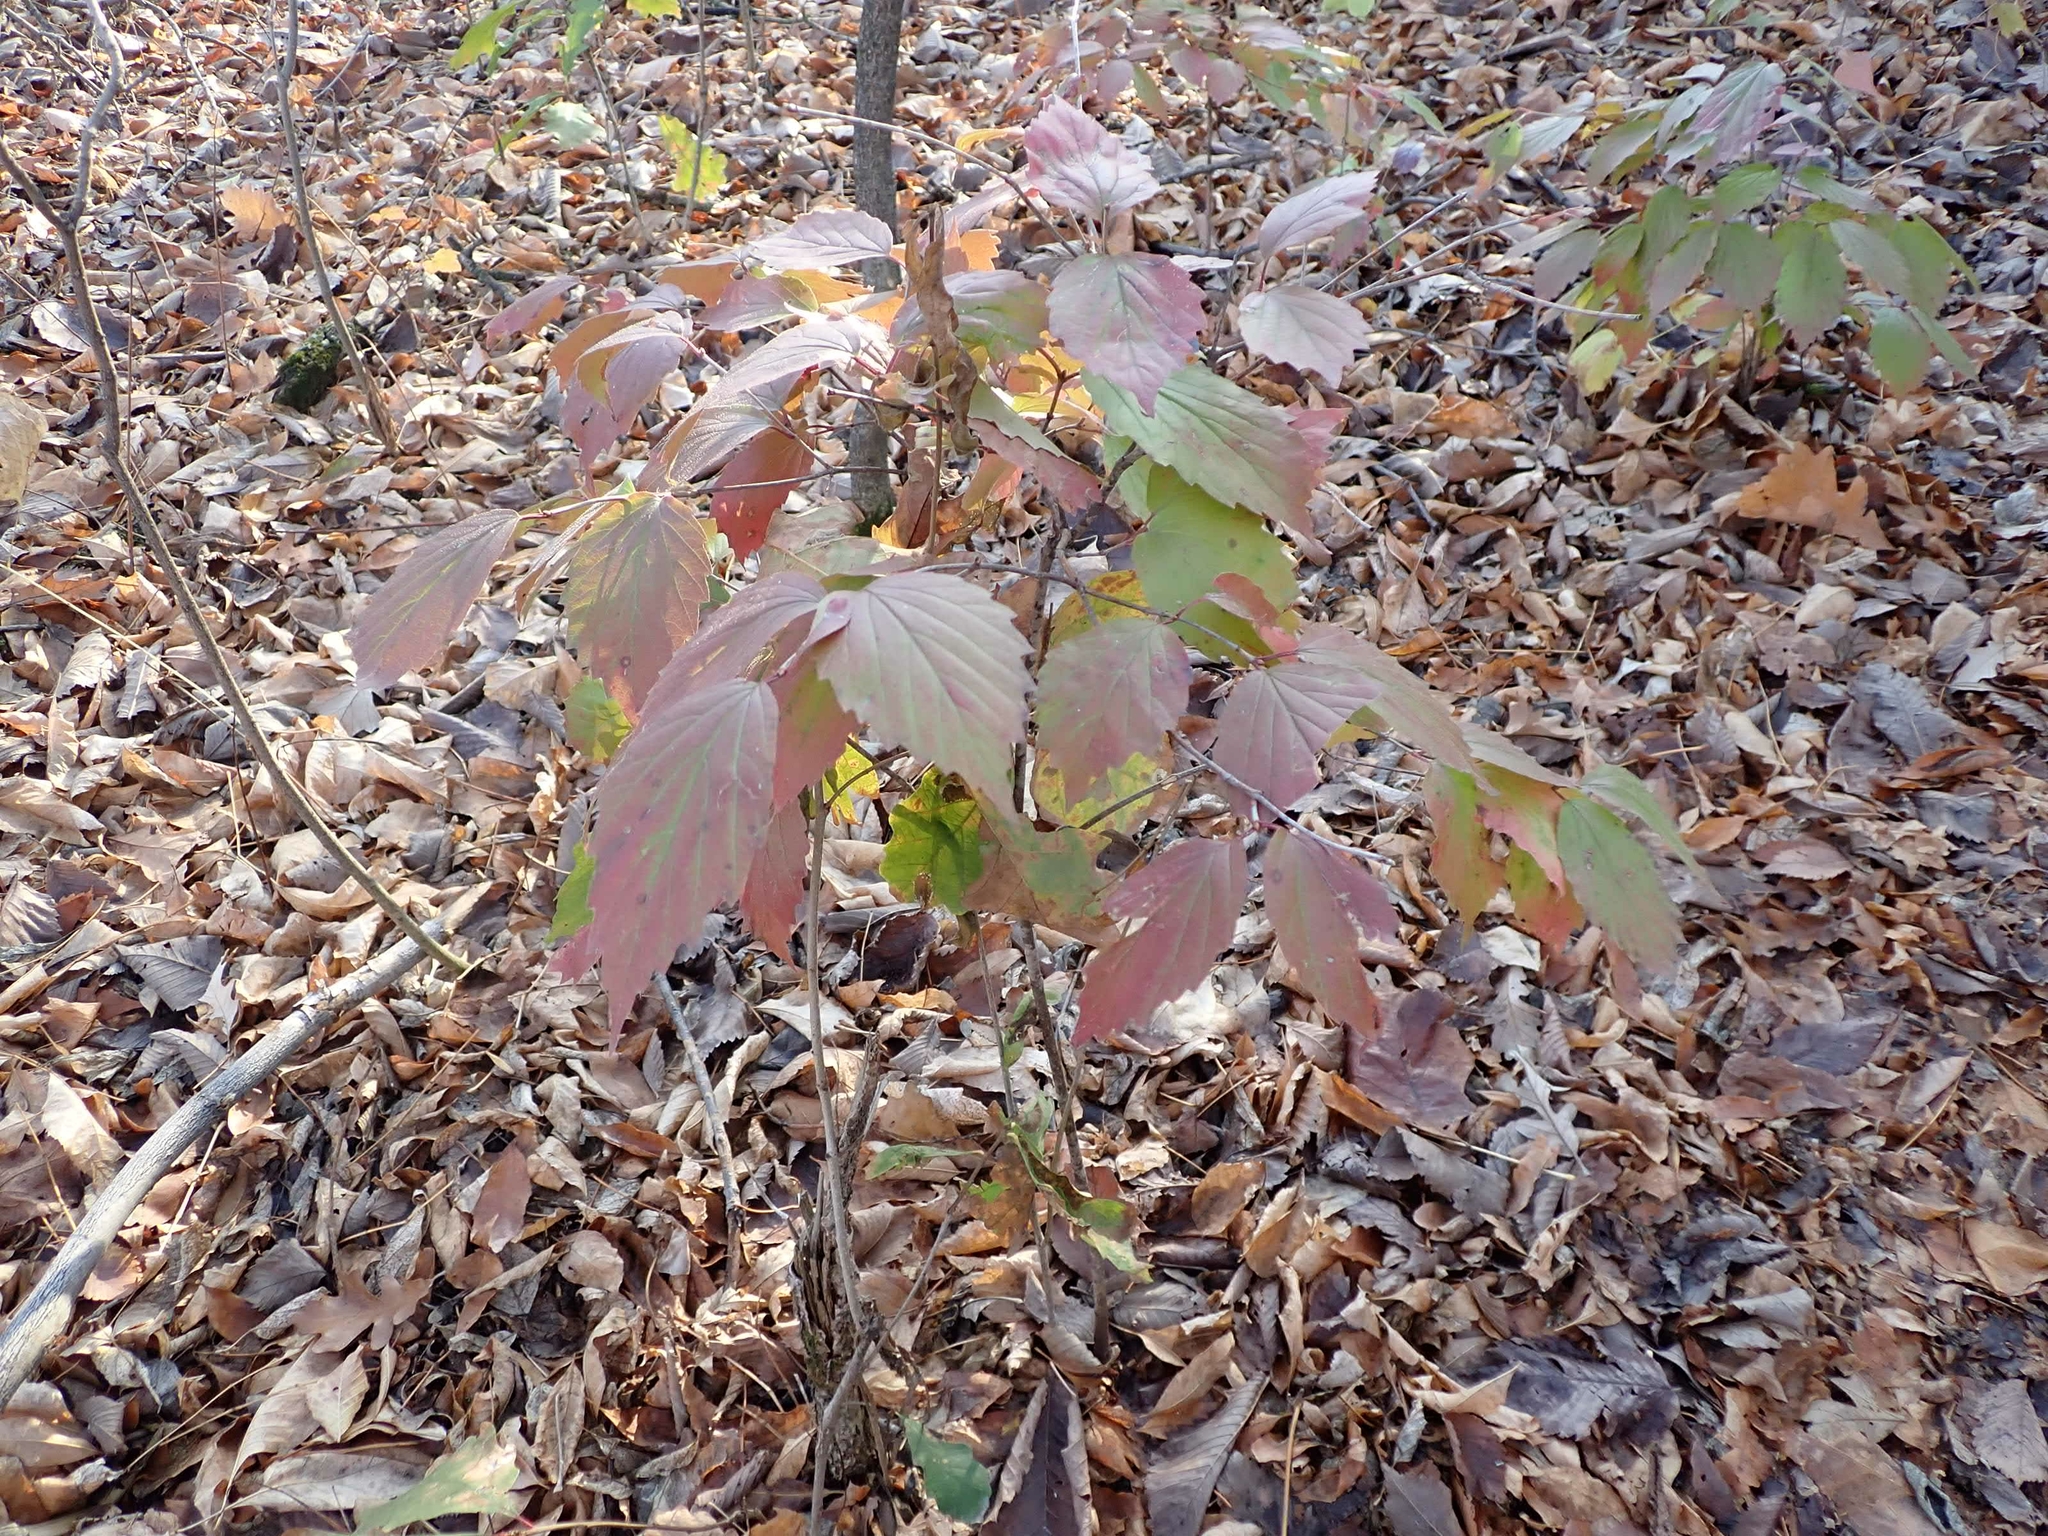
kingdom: Plantae
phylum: Tracheophyta
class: Magnoliopsida
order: Dipsacales
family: Viburnaceae
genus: Viburnum
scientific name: Viburnum rafinesqueanum
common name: Downy arrow-wood
